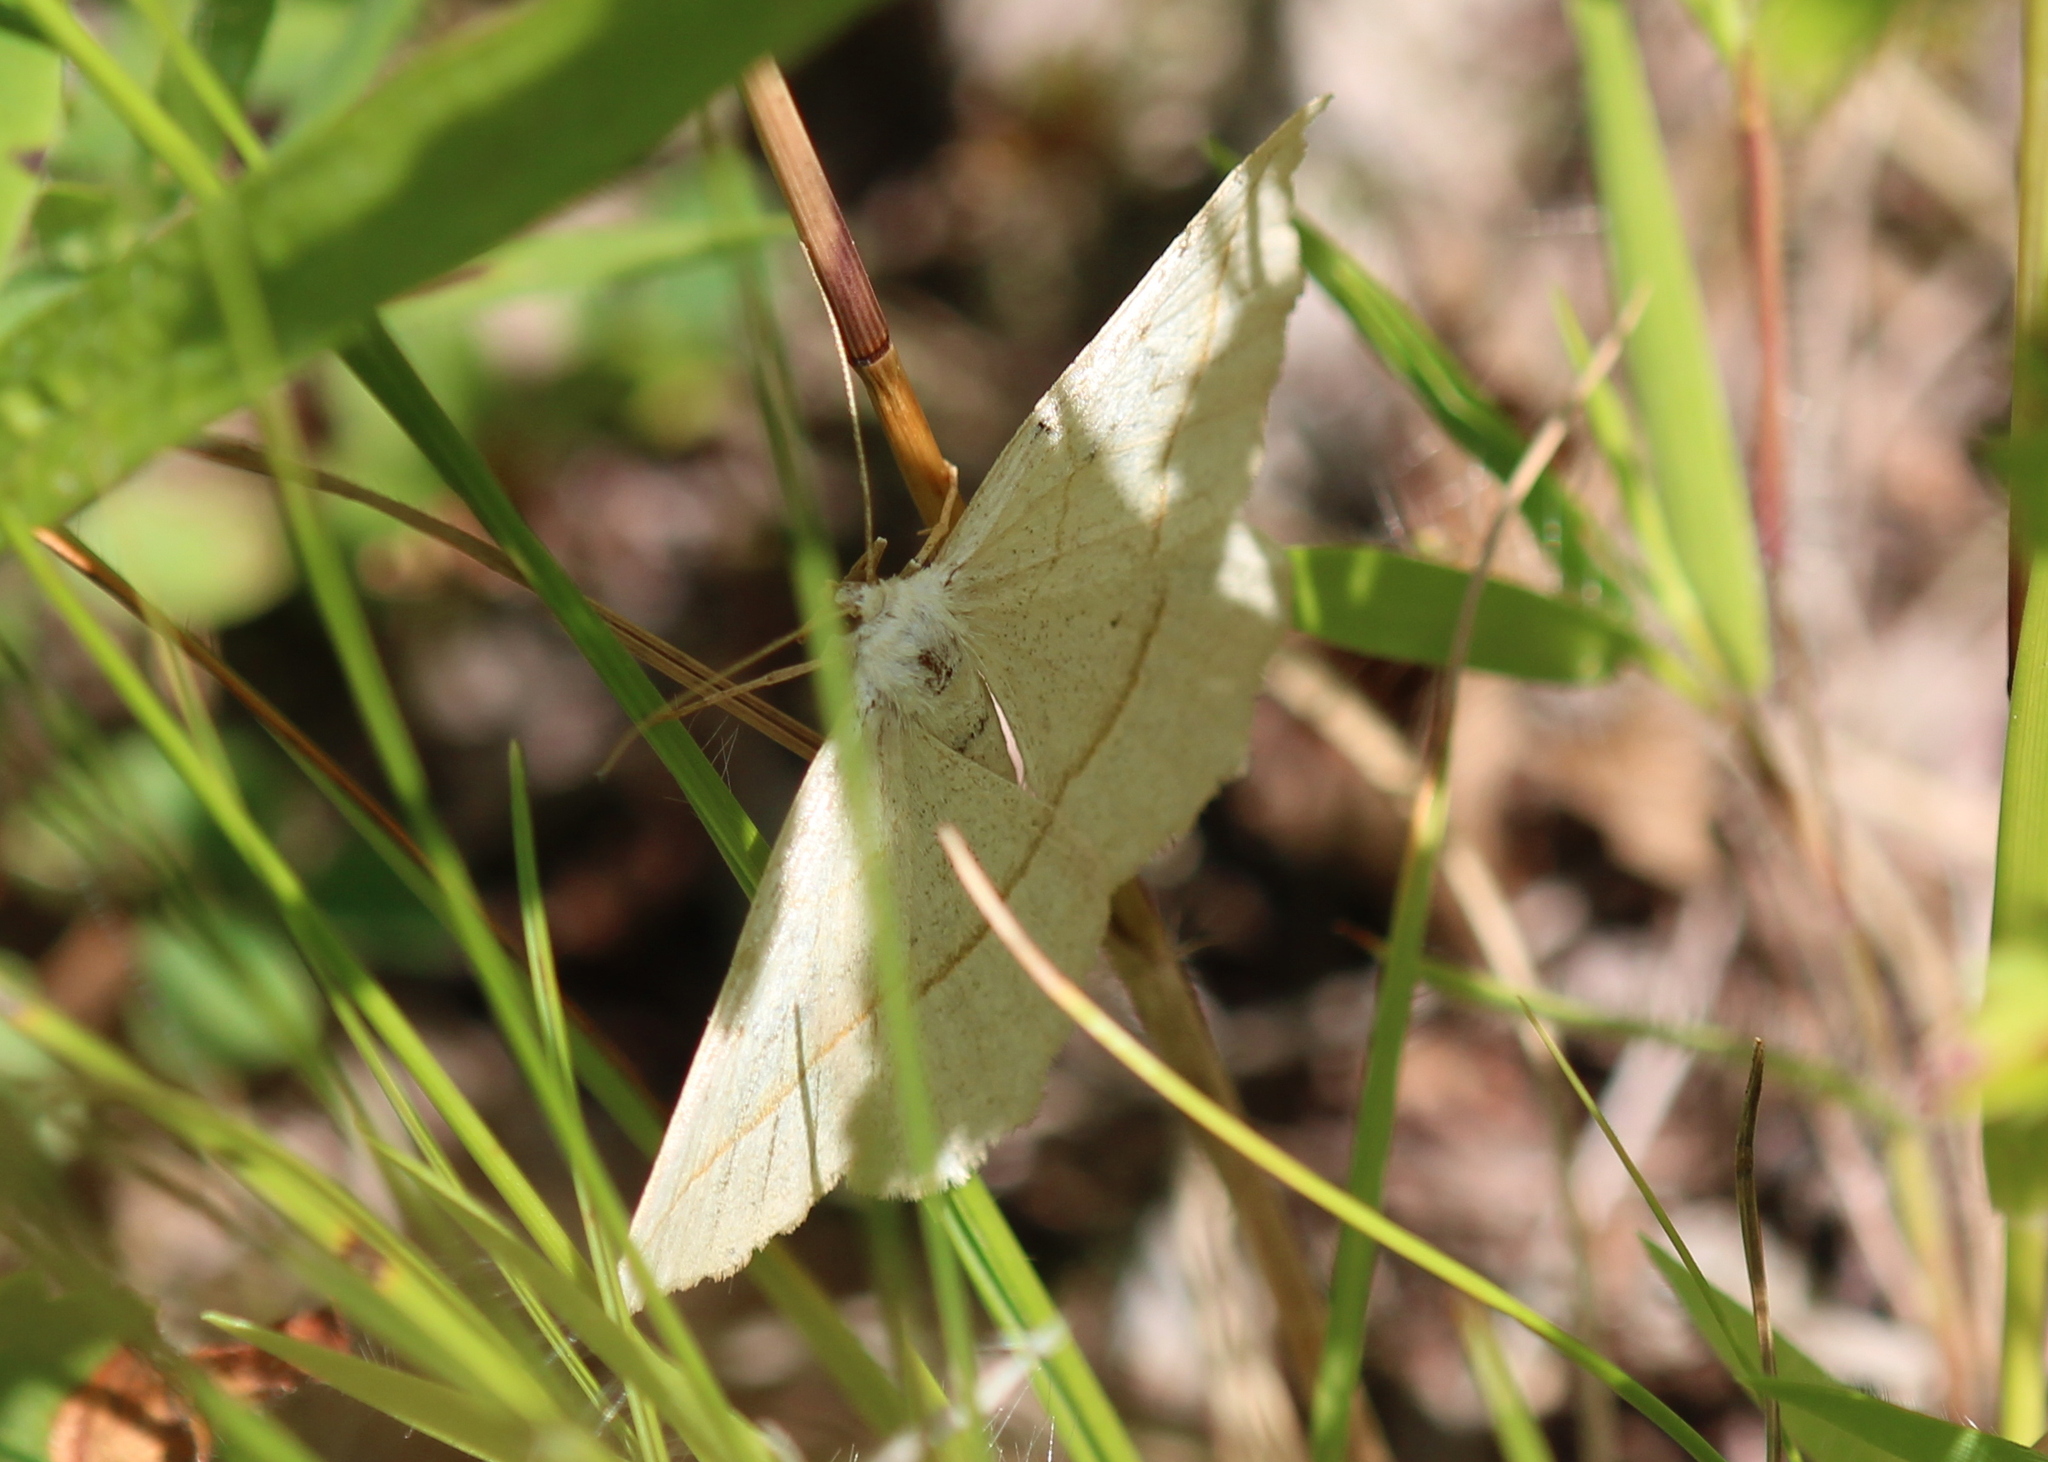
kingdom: Animalia
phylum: Arthropoda
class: Insecta
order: Lepidoptera
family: Geometridae
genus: Eusarca
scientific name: Eusarca confusaria
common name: Confused eusarca
